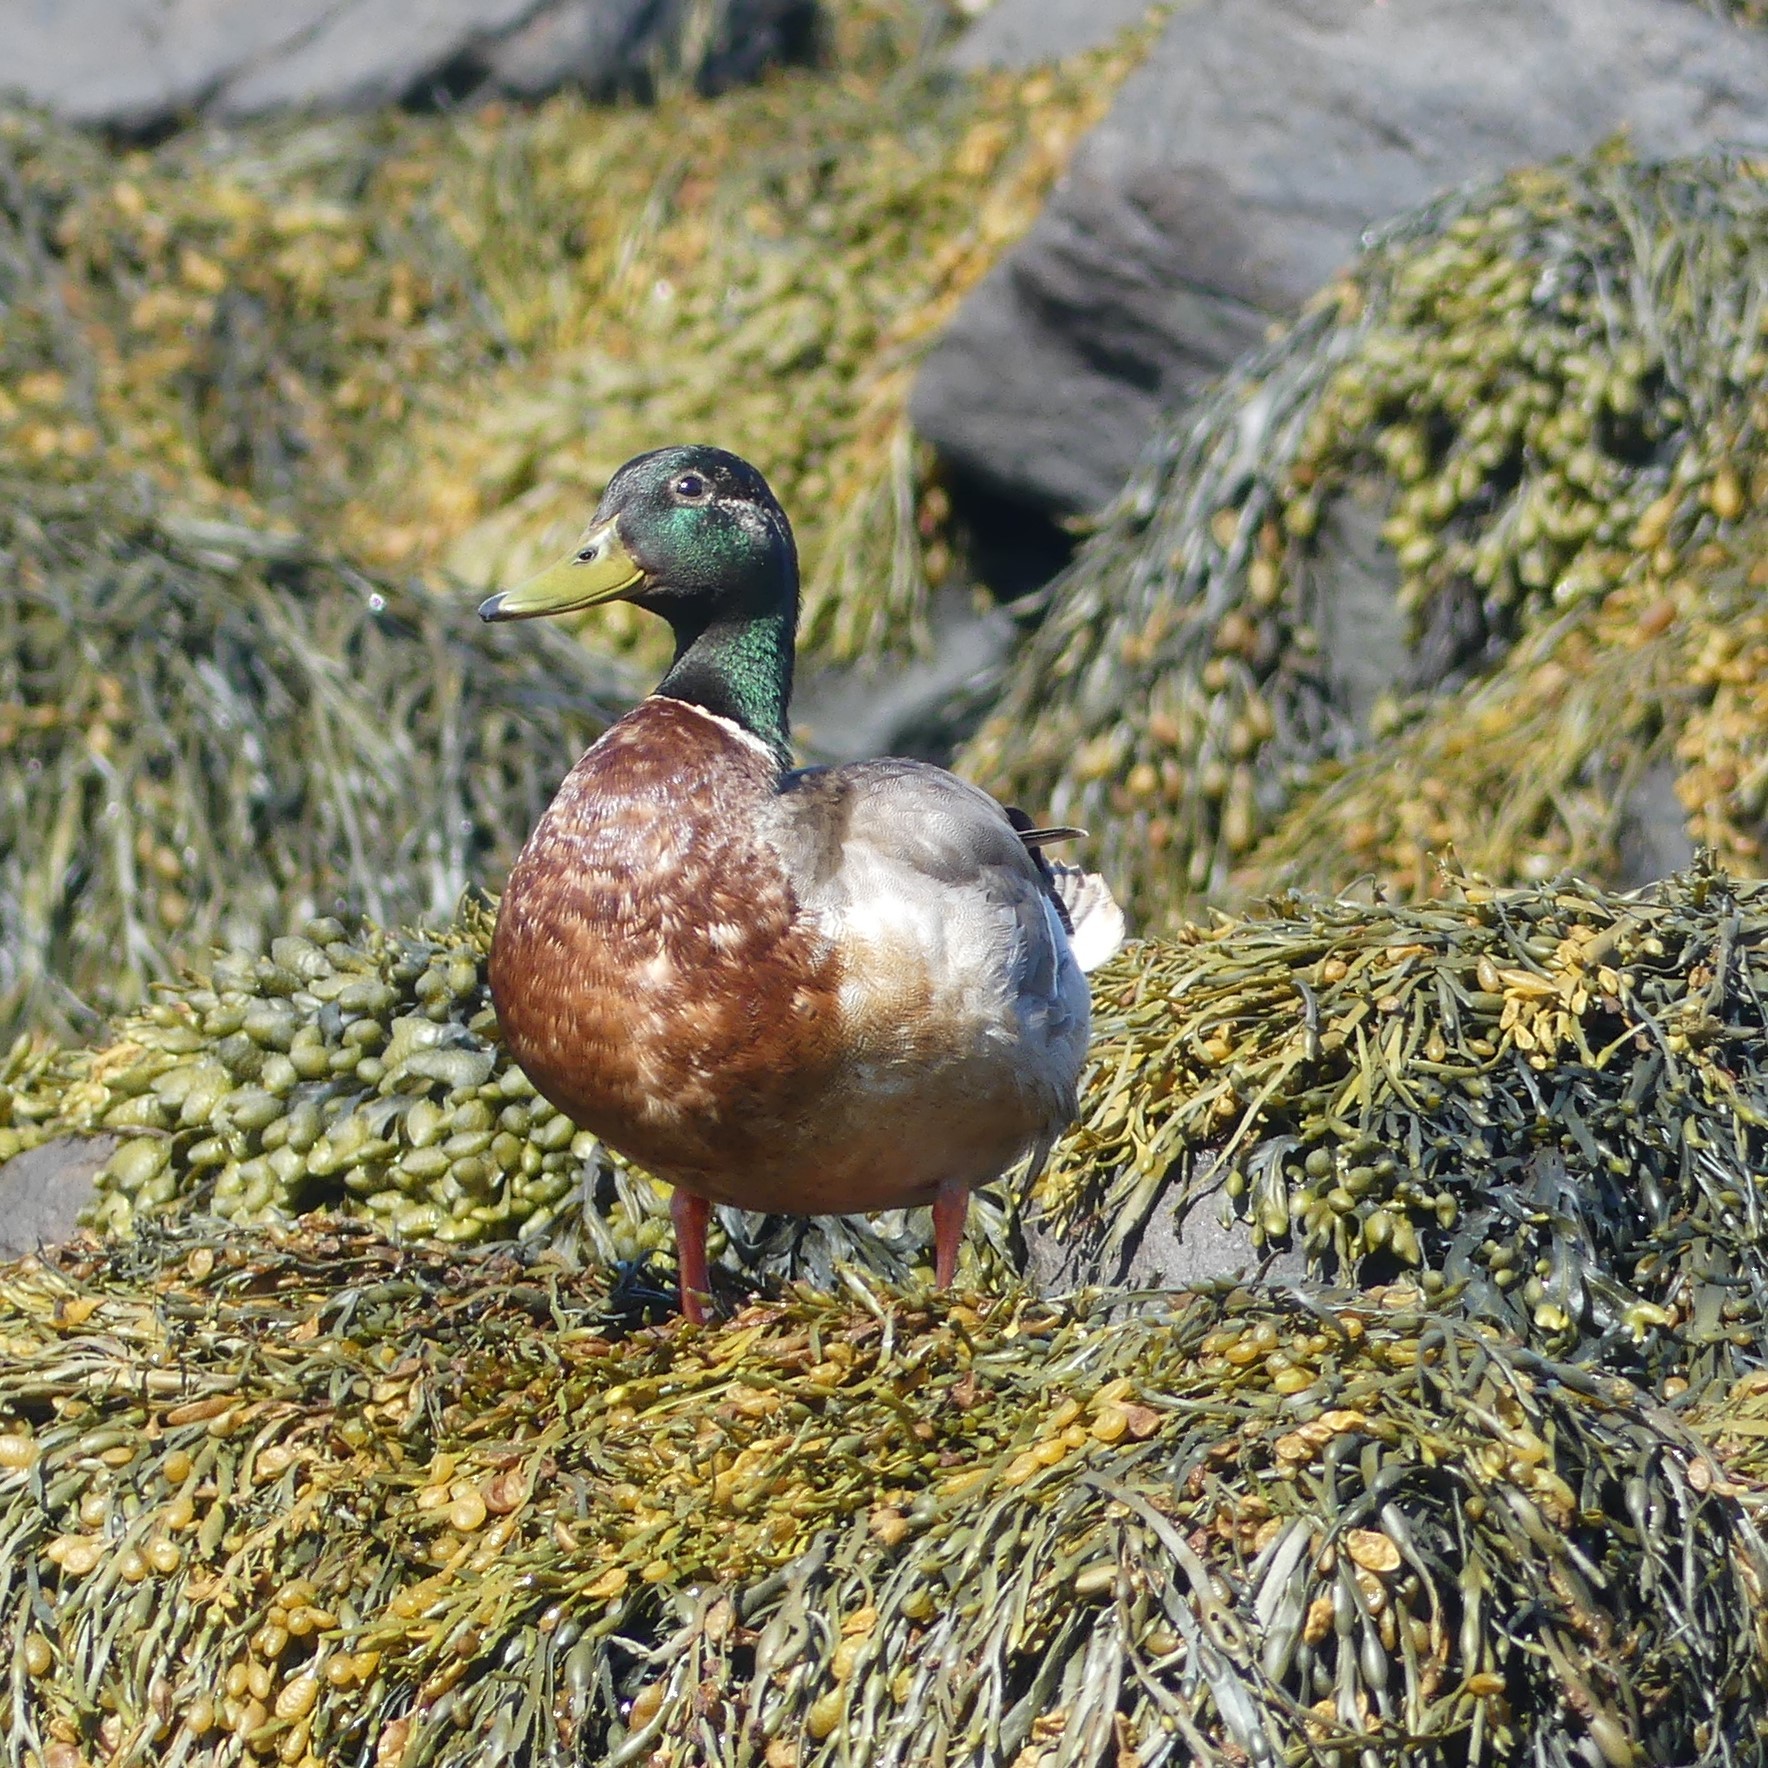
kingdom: Animalia
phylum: Chordata
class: Aves
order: Anseriformes
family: Anatidae
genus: Anas
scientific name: Anas platyrhynchos
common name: Mallard
